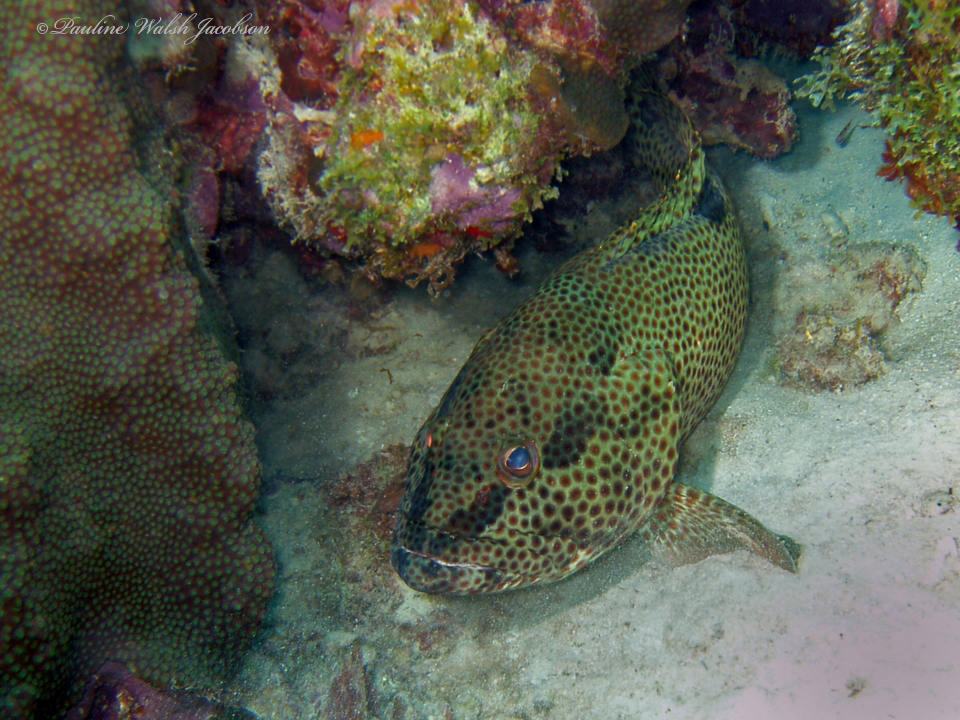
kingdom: Animalia
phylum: Chordata
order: Perciformes
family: Serranidae
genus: Epinephelus
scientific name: Epinephelus adscensionis
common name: Rock hind
